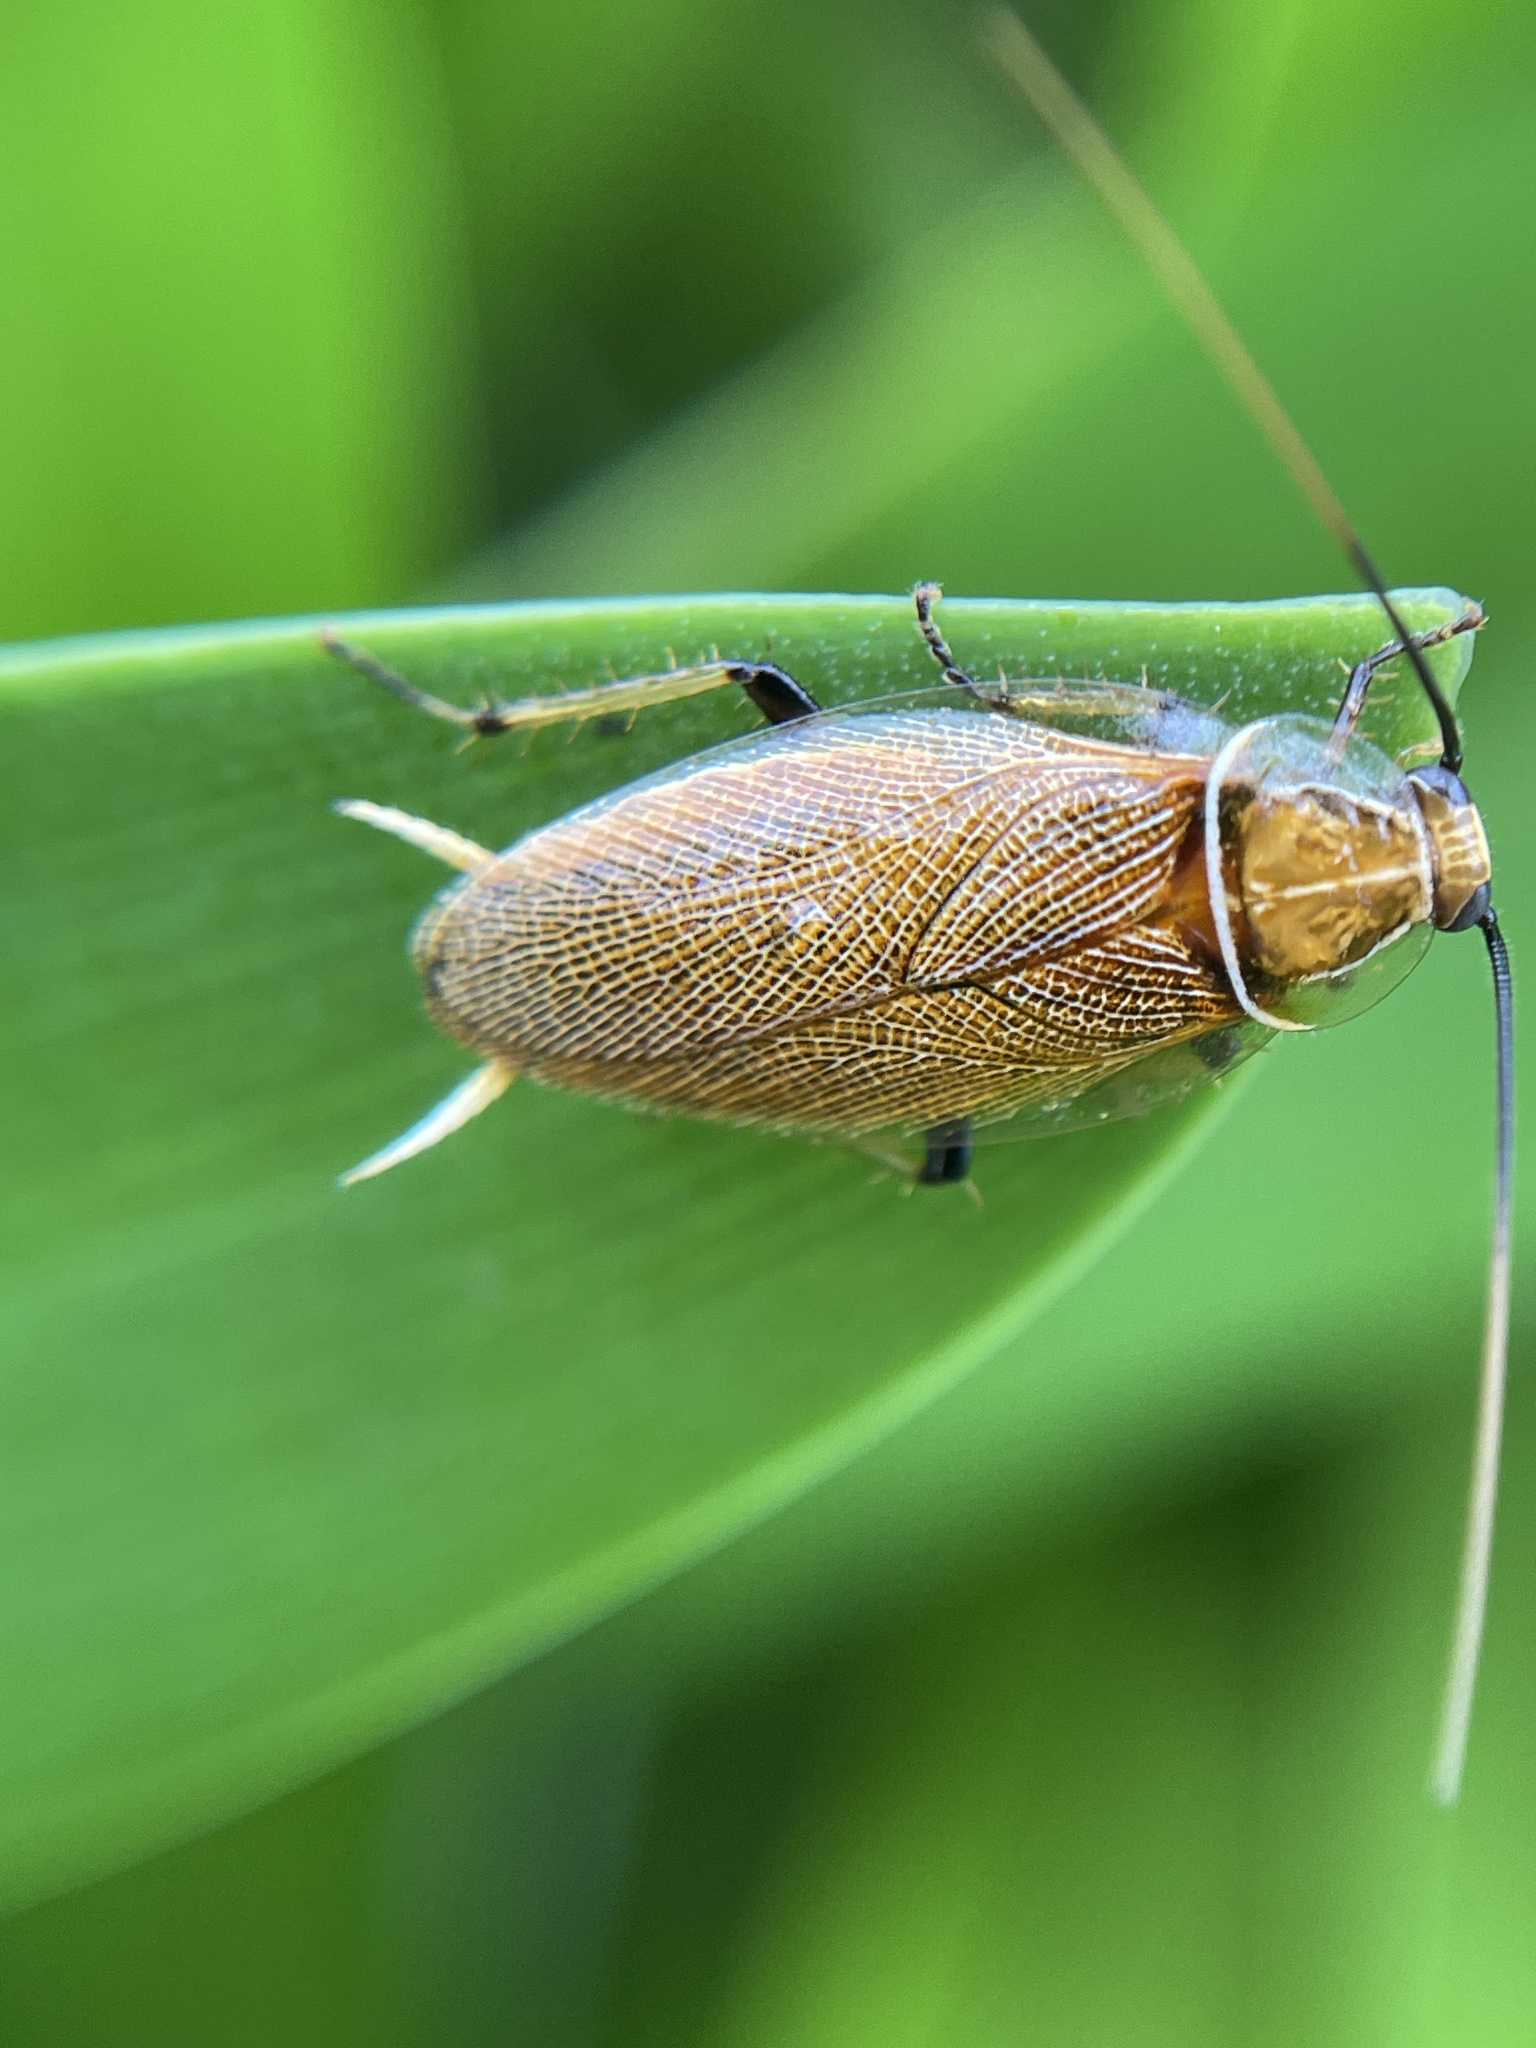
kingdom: Animalia
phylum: Arthropoda
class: Insecta
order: Blattodea
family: Ectobiidae
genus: Balta
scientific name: Balta bicolor
